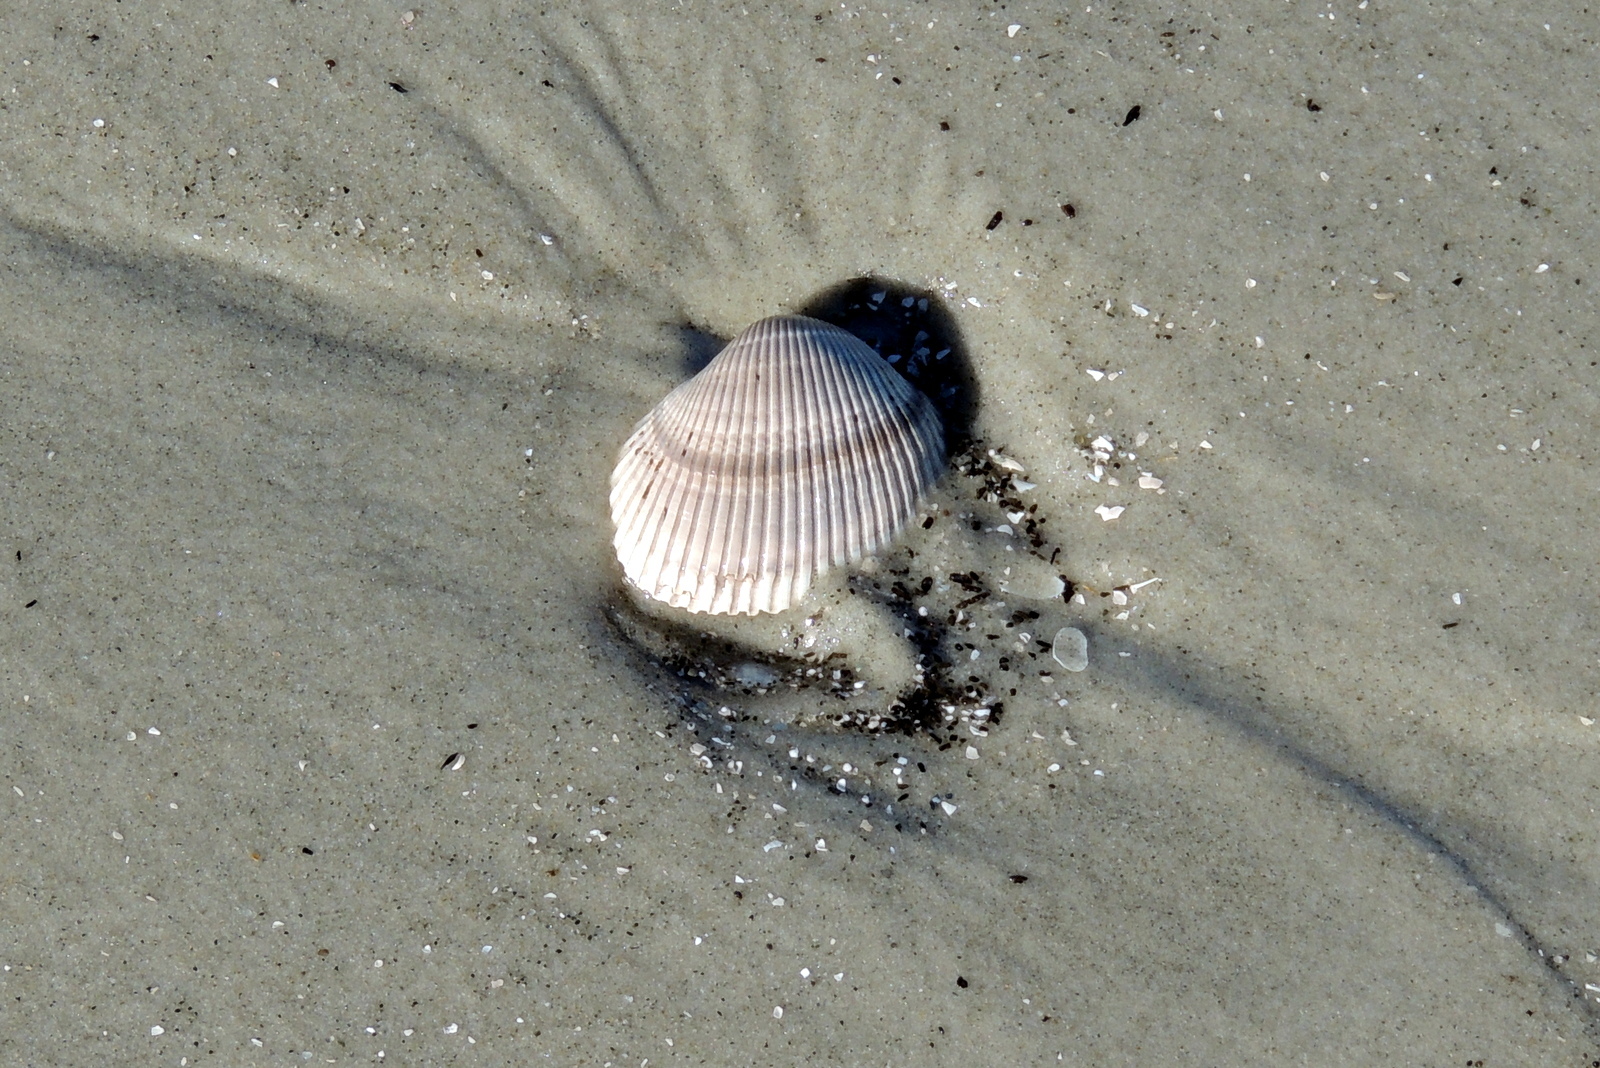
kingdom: Animalia
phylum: Mollusca
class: Bivalvia
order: Arcida
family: Arcidae
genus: Lunarca
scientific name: Lunarca ovalis
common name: Blood ark
